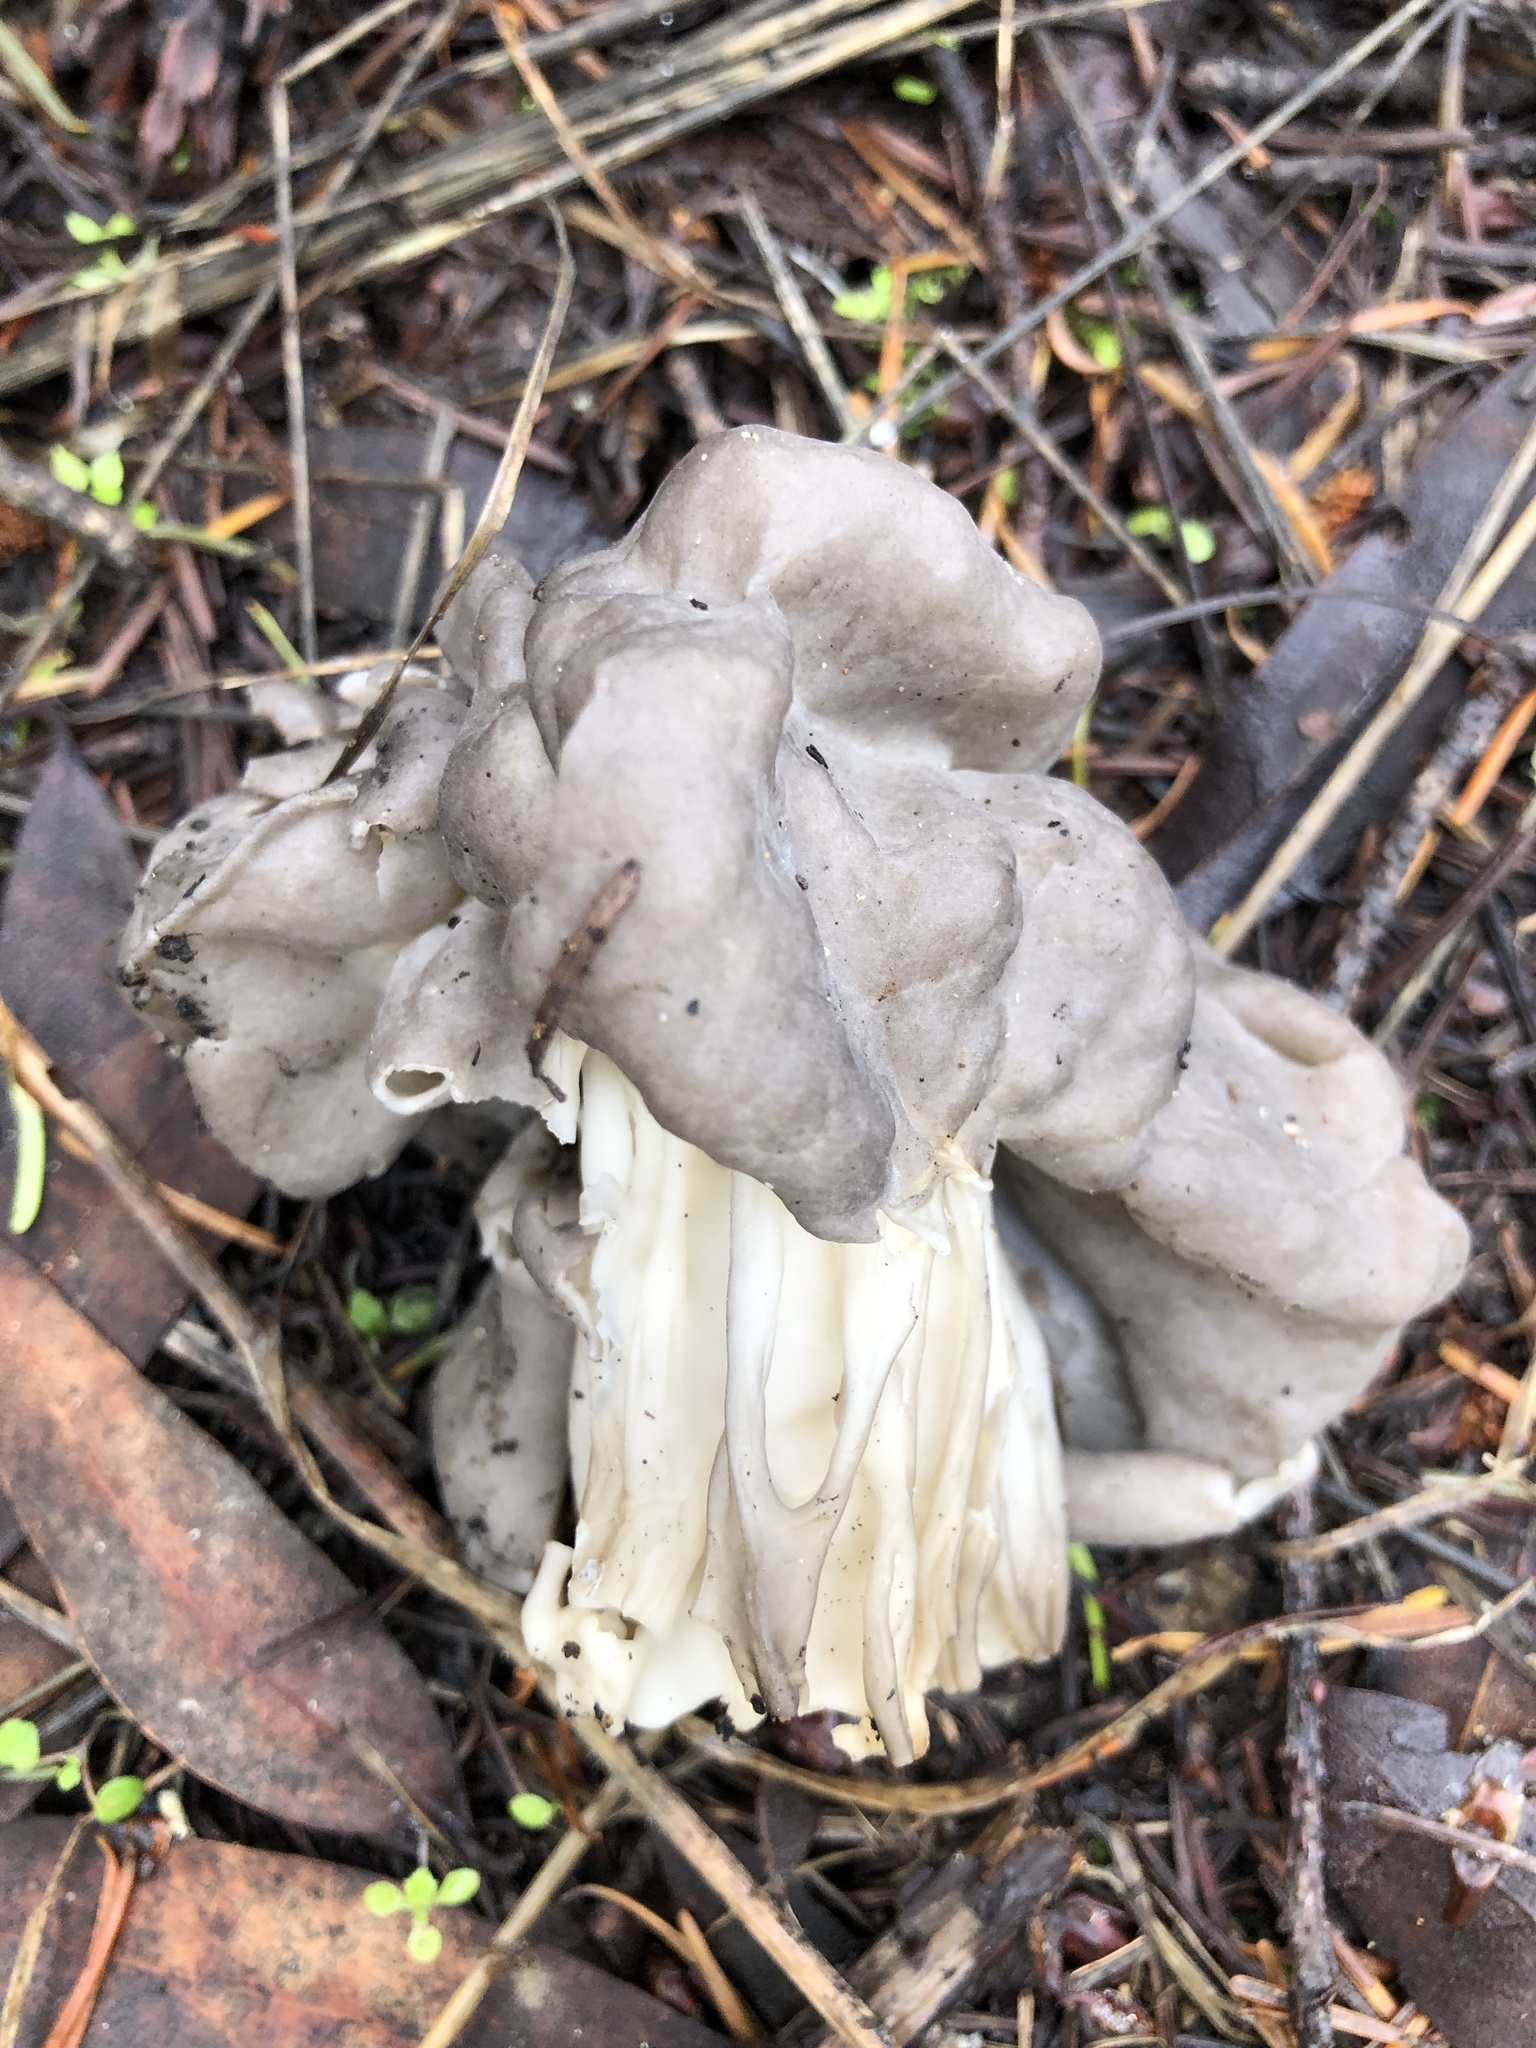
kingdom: Fungi
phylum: Ascomycota
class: Pezizomycetes
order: Pezizales
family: Helvellaceae
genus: Helvella
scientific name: Helvella vespertina
